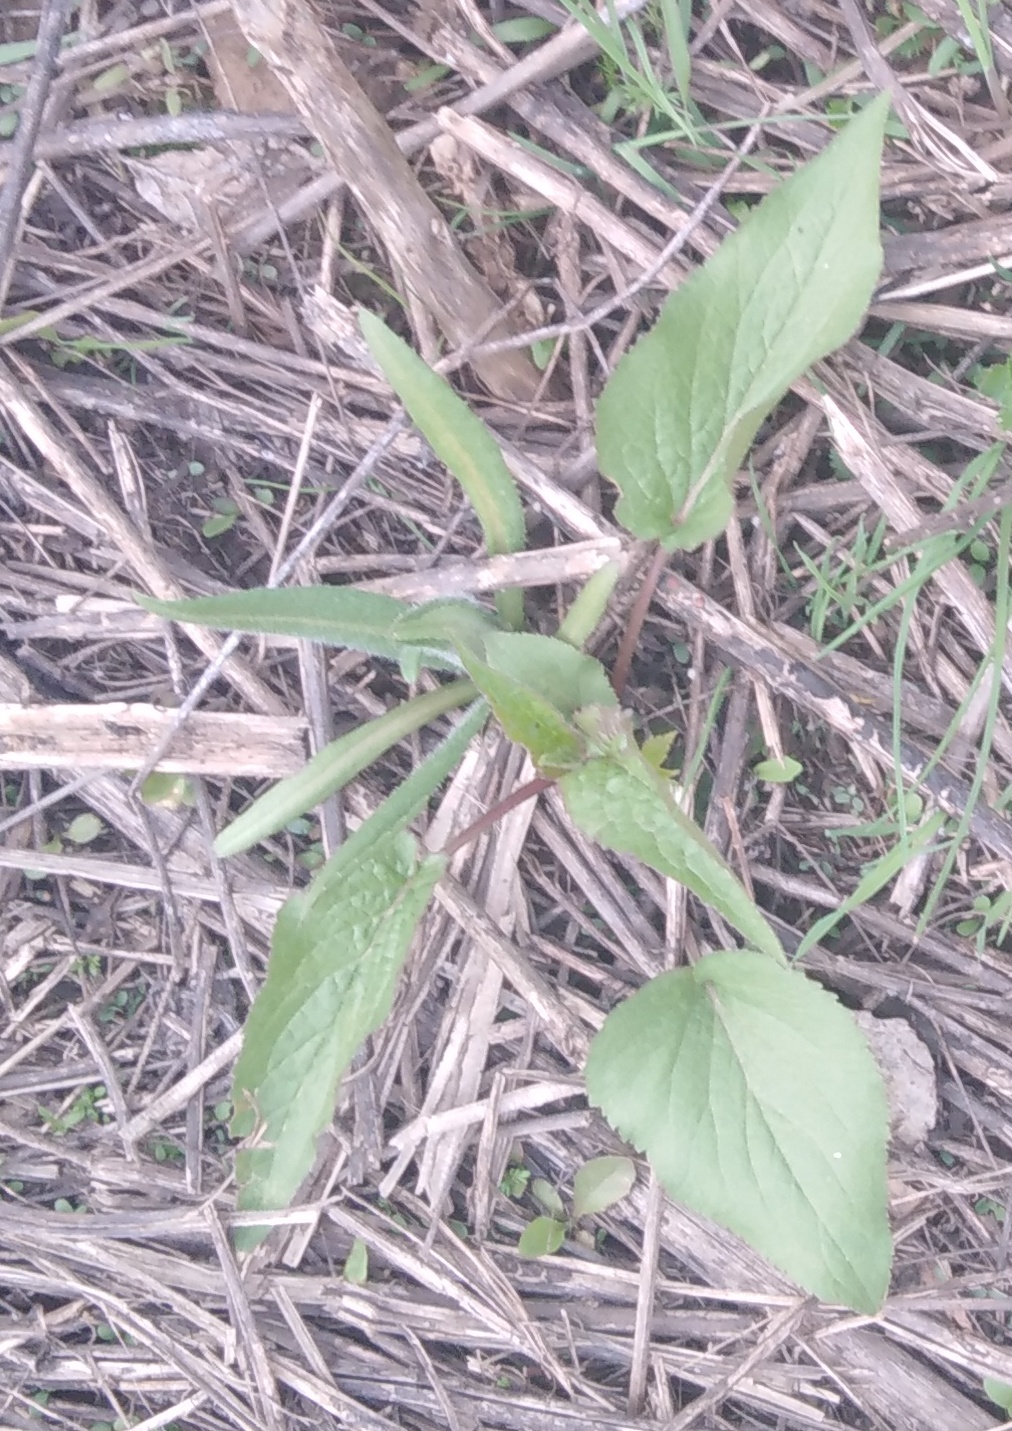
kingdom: Plantae
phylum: Tracheophyta
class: Magnoliopsida
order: Asterales
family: Campanulaceae
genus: Campanula
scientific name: Campanula rapunculoides
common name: Creeping bellflower
